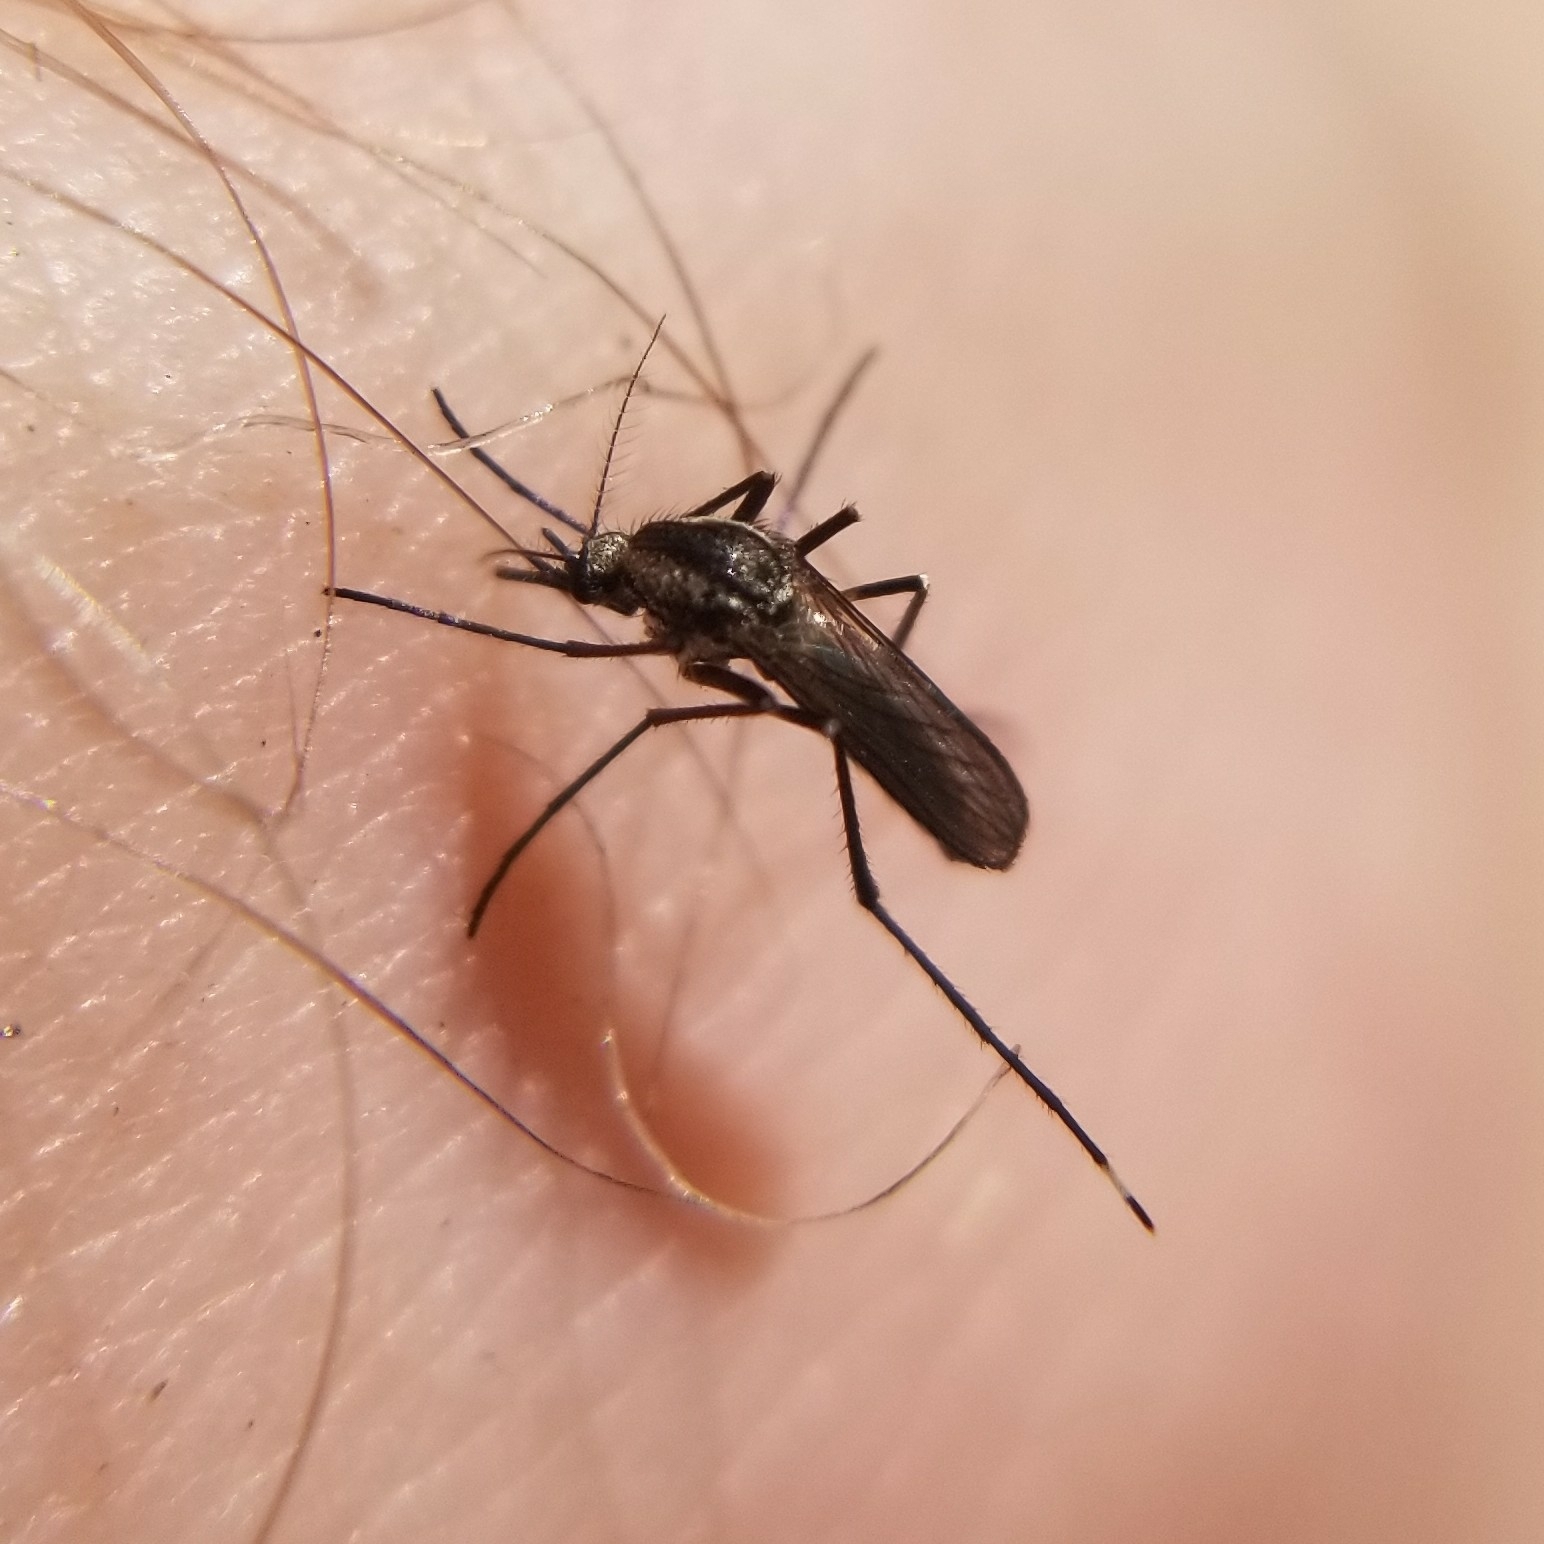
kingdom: Animalia
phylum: Arthropoda
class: Insecta
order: Diptera
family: Culicidae
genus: Psorophora
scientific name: Psorophora mathesoni
